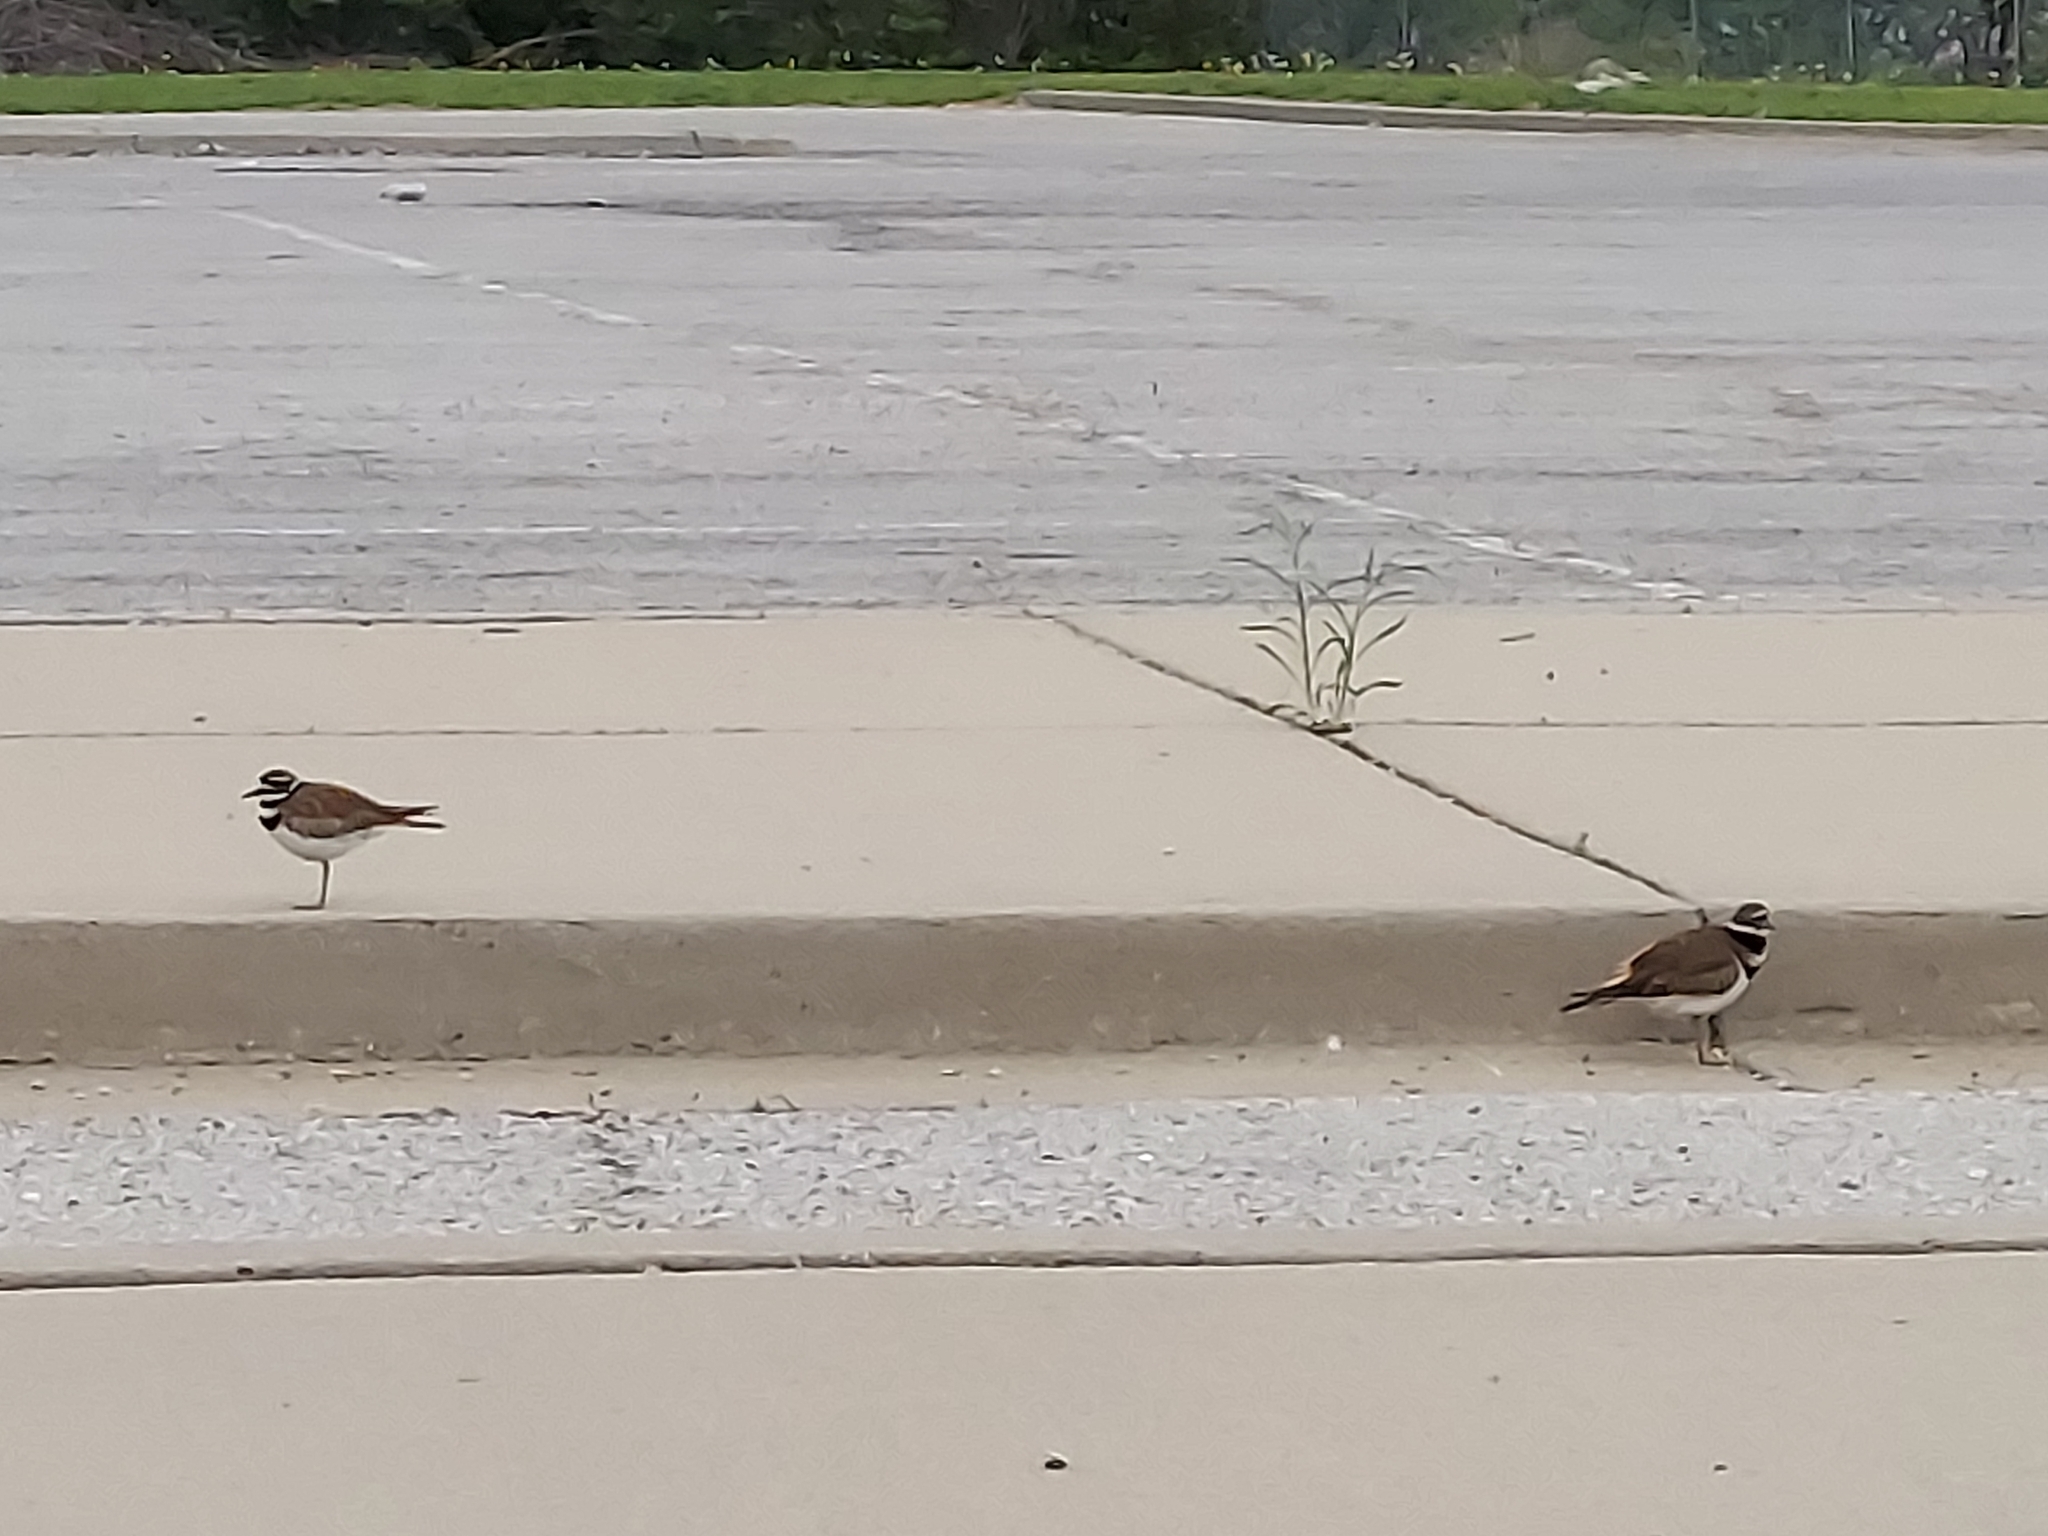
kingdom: Animalia
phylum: Chordata
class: Aves
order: Charadriiformes
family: Charadriidae
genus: Charadrius
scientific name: Charadrius vociferus
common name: Killdeer
